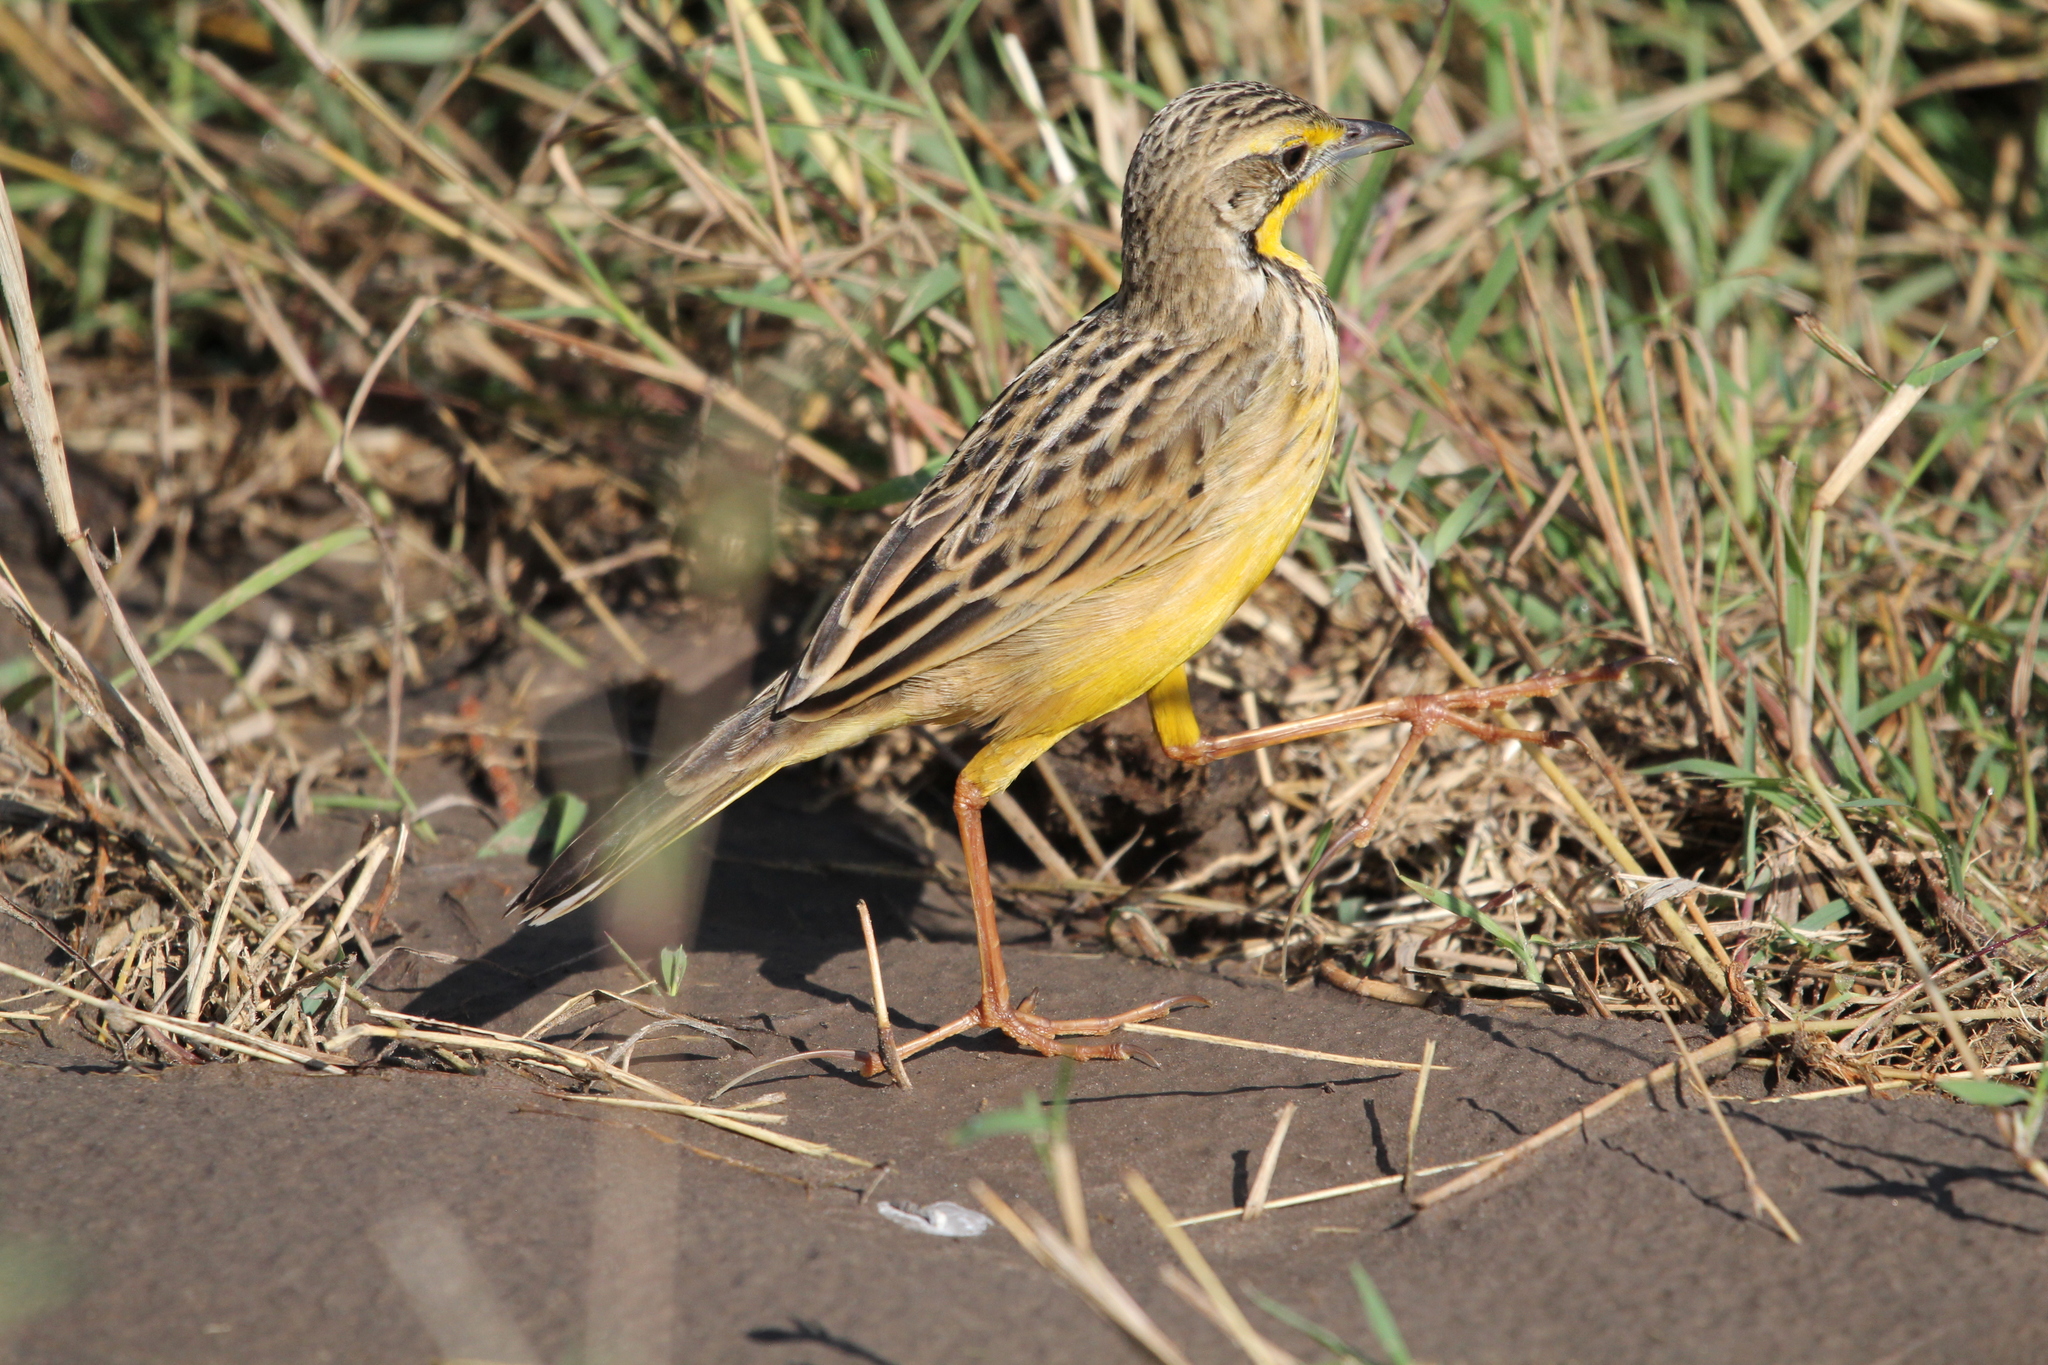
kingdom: Animalia
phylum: Chordata
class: Aves
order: Passeriformes
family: Motacillidae
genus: Macronyx
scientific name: Macronyx croceus
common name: Yellow-throated longclaw
